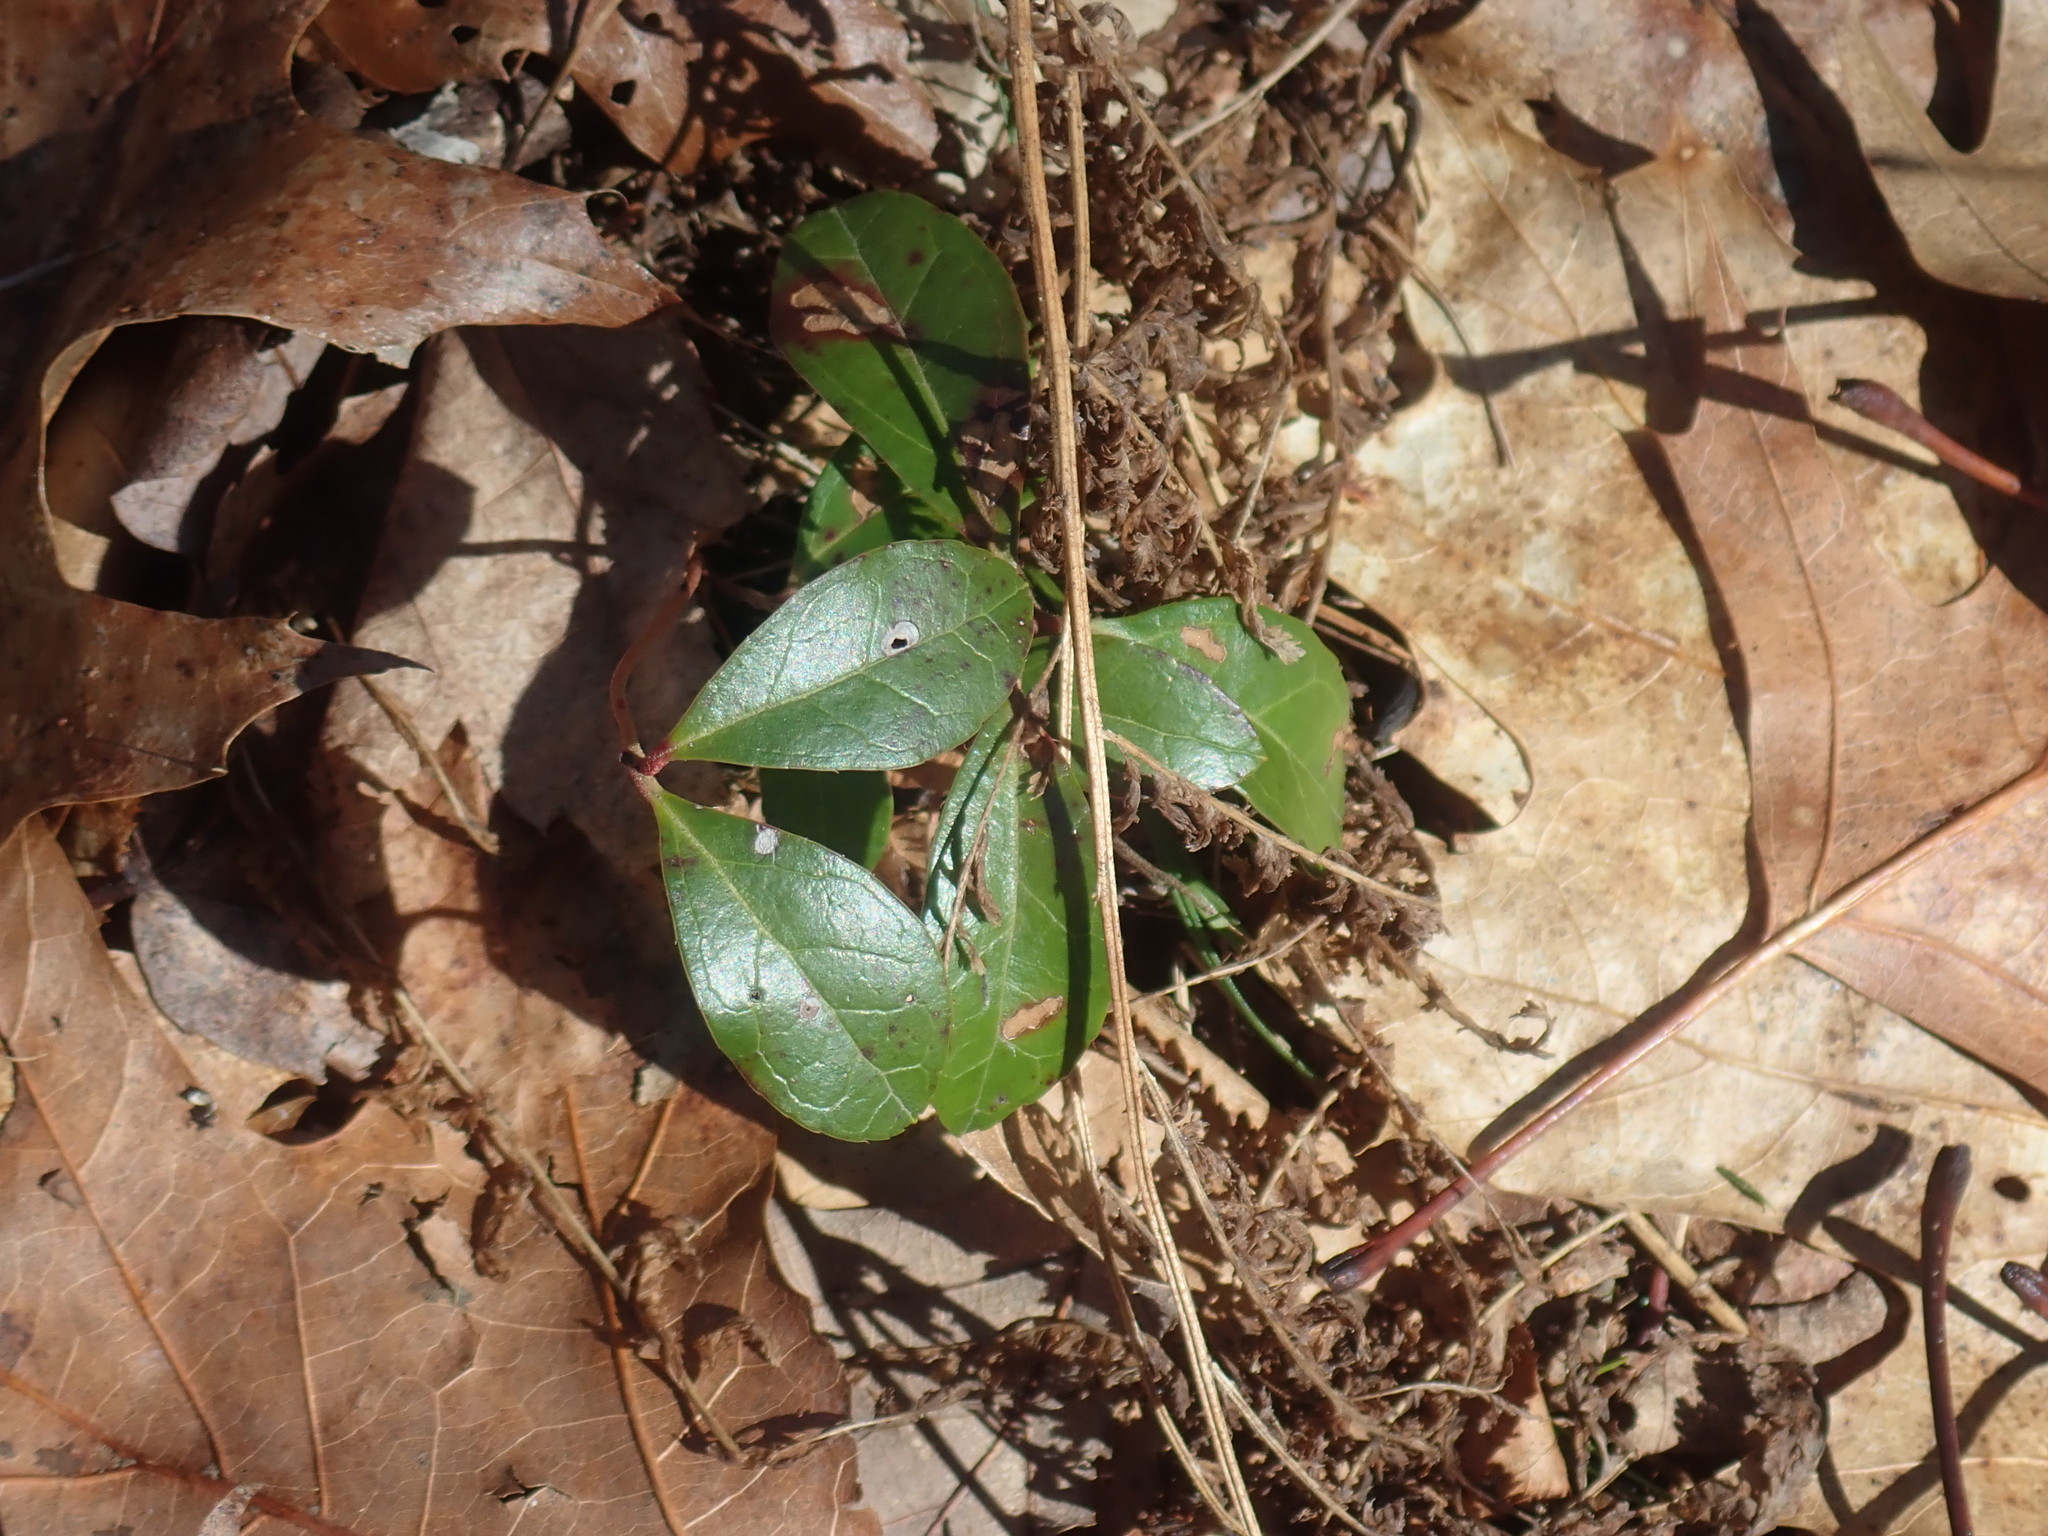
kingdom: Plantae
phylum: Tracheophyta
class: Magnoliopsida
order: Ericales
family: Ericaceae
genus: Gaultheria
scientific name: Gaultheria procumbens
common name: Checkerberry
